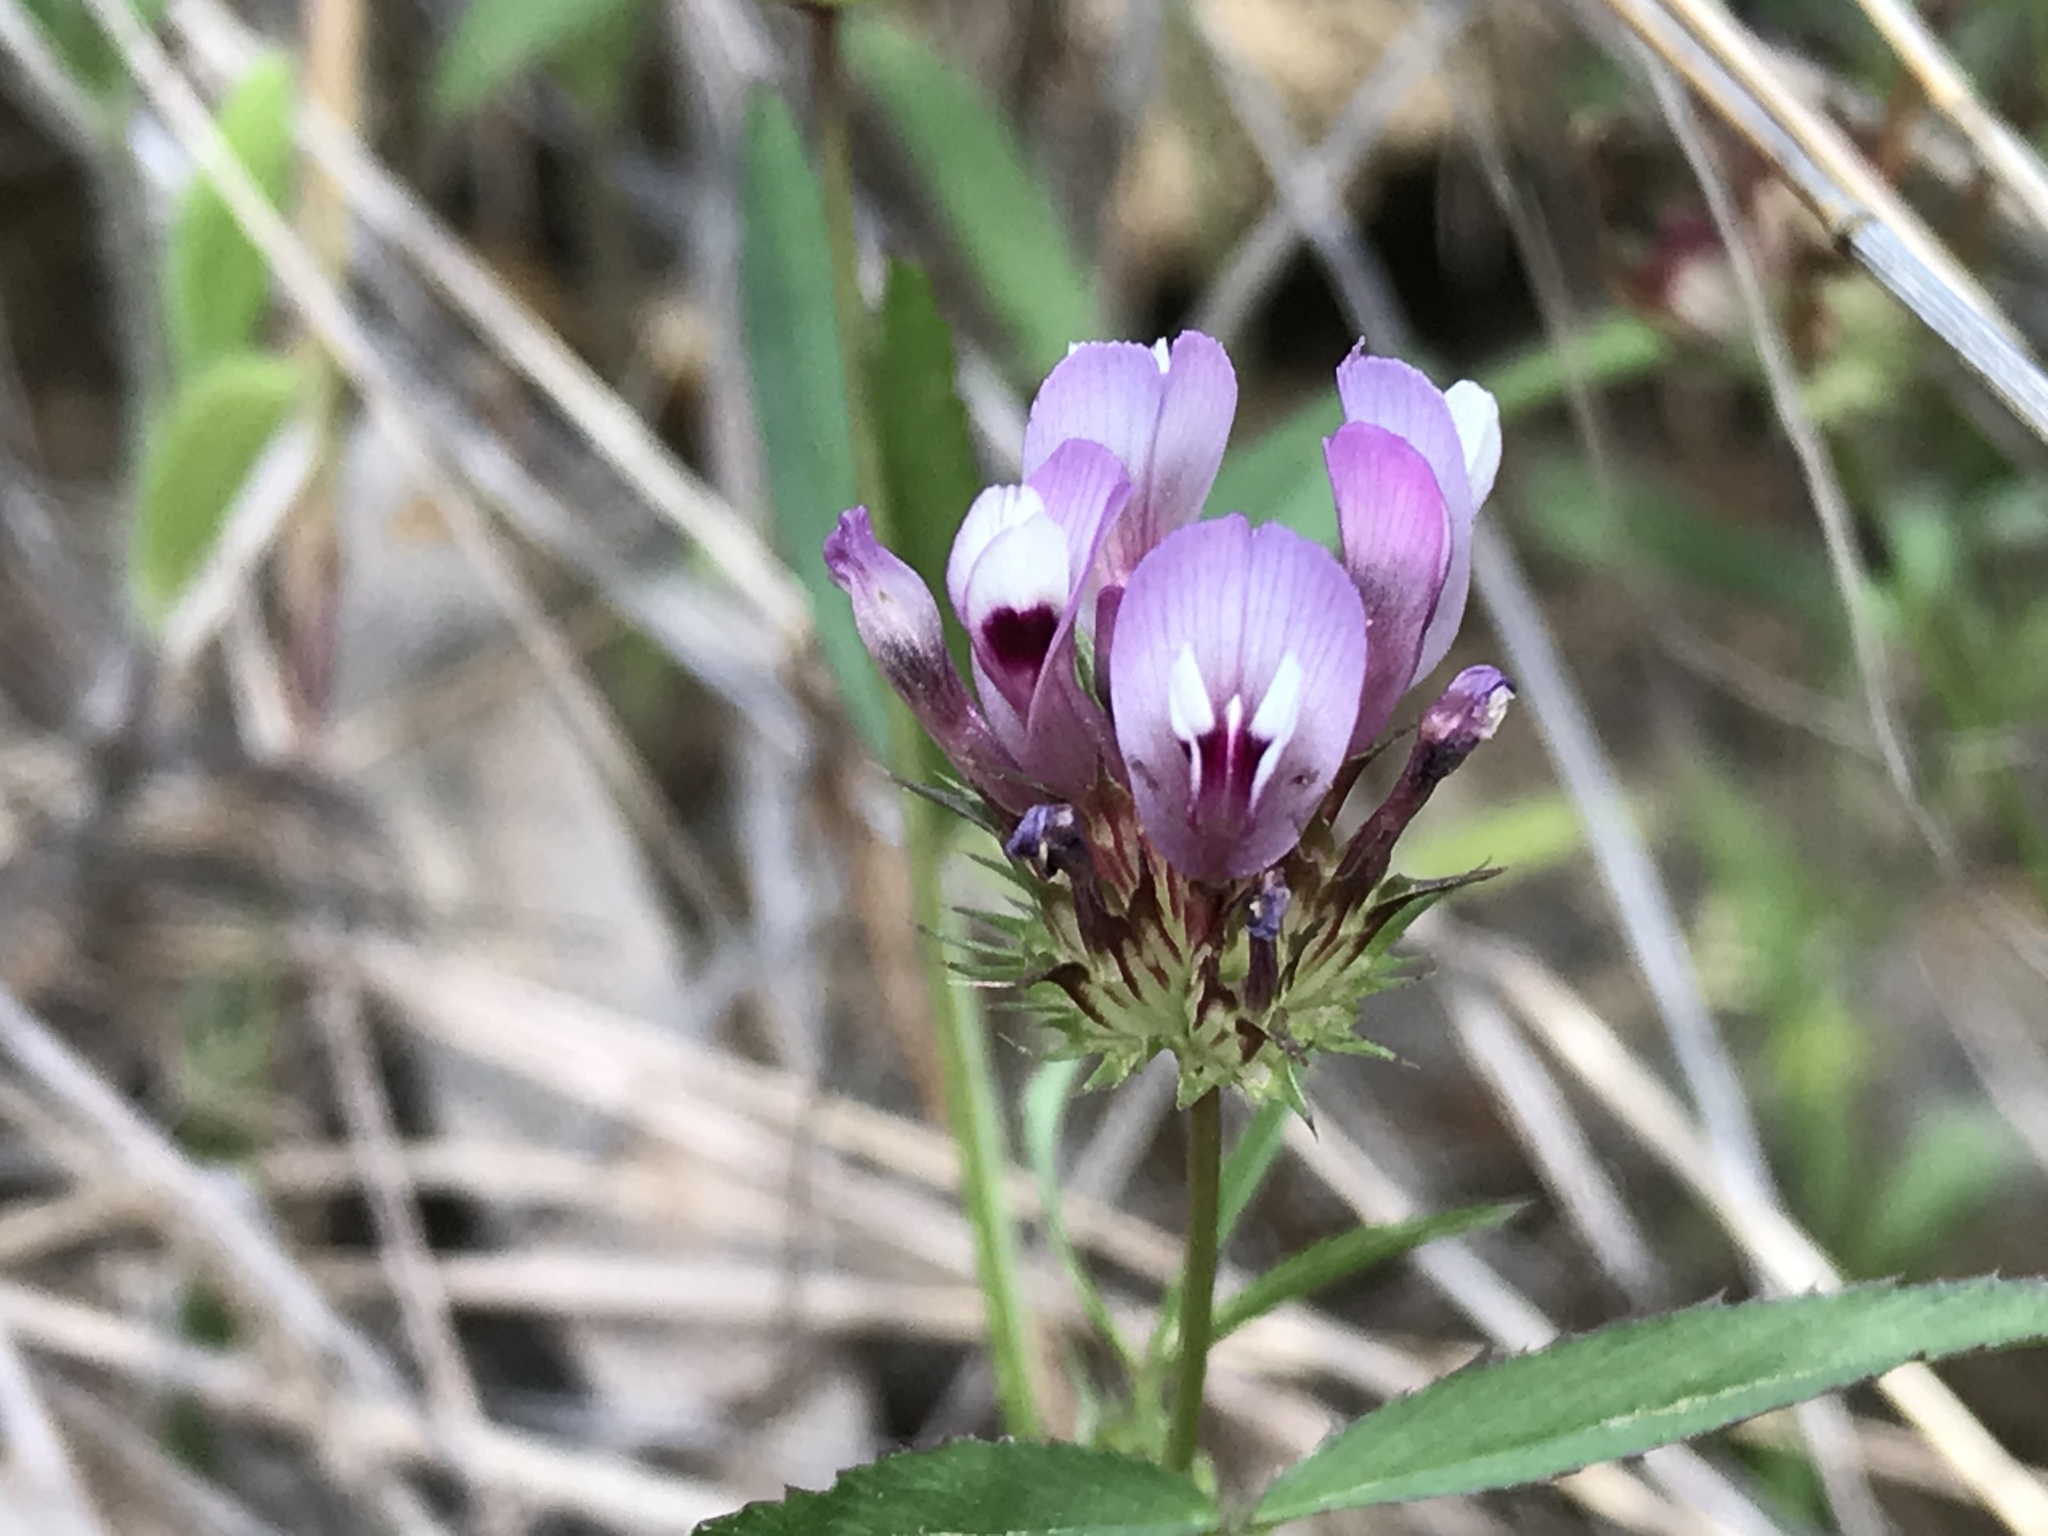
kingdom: Plantae
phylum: Tracheophyta
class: Magnoliopsida
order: Fabales
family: Fabaceae
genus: Trifolium
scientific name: Trifolium willdenovii
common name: Tomcat clover
